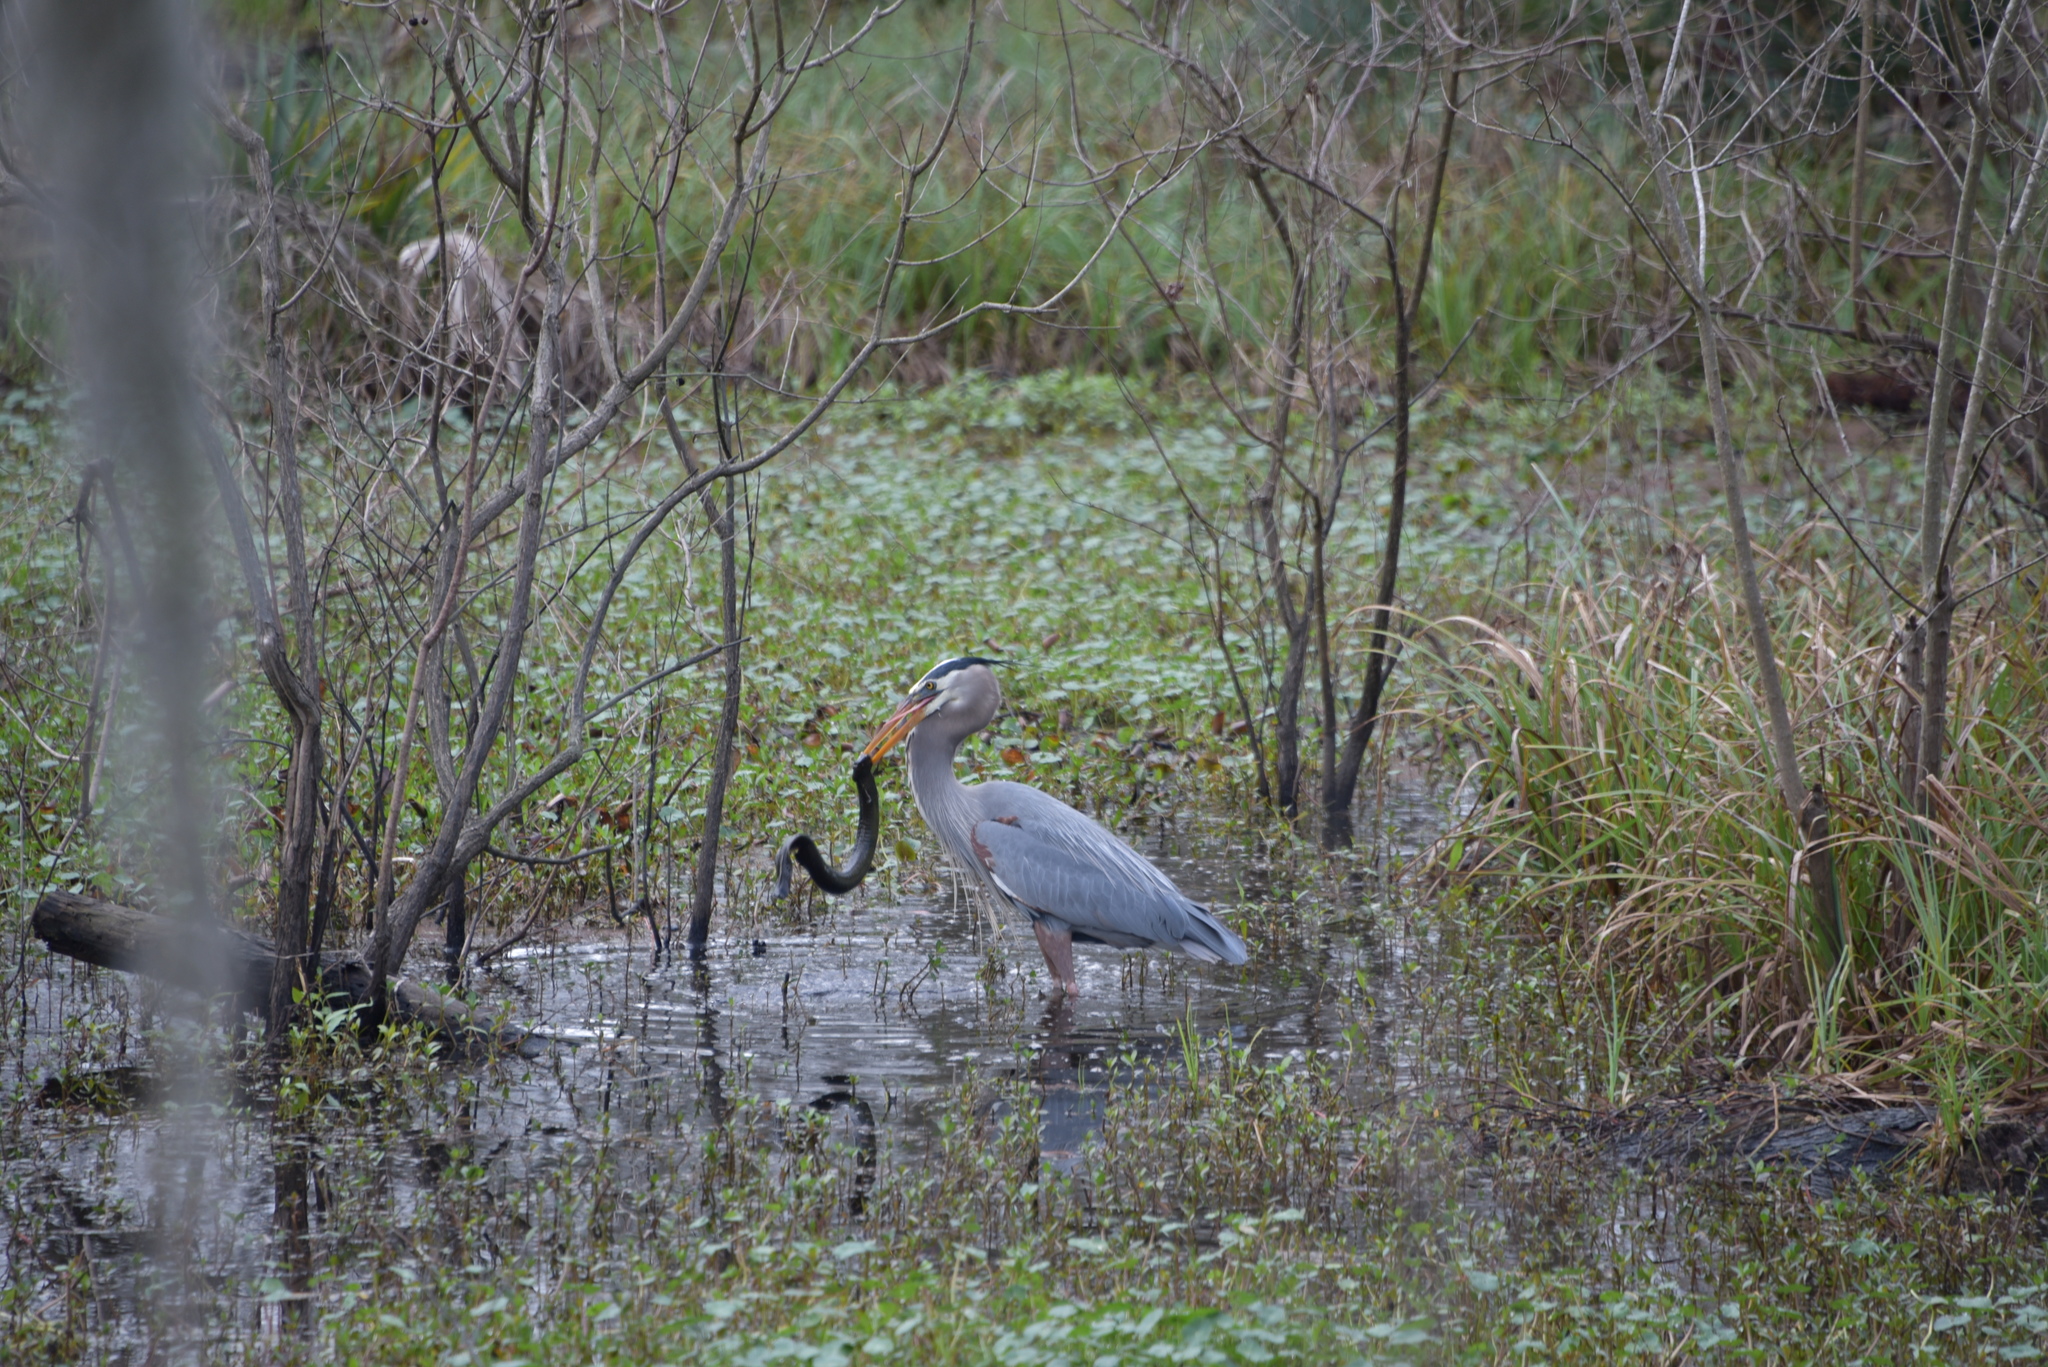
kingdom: Animalia
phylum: Chordata
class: Amphibia
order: Caudata
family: Sirenidae
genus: Siren
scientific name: Siren intermedia
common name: Lesser siren
